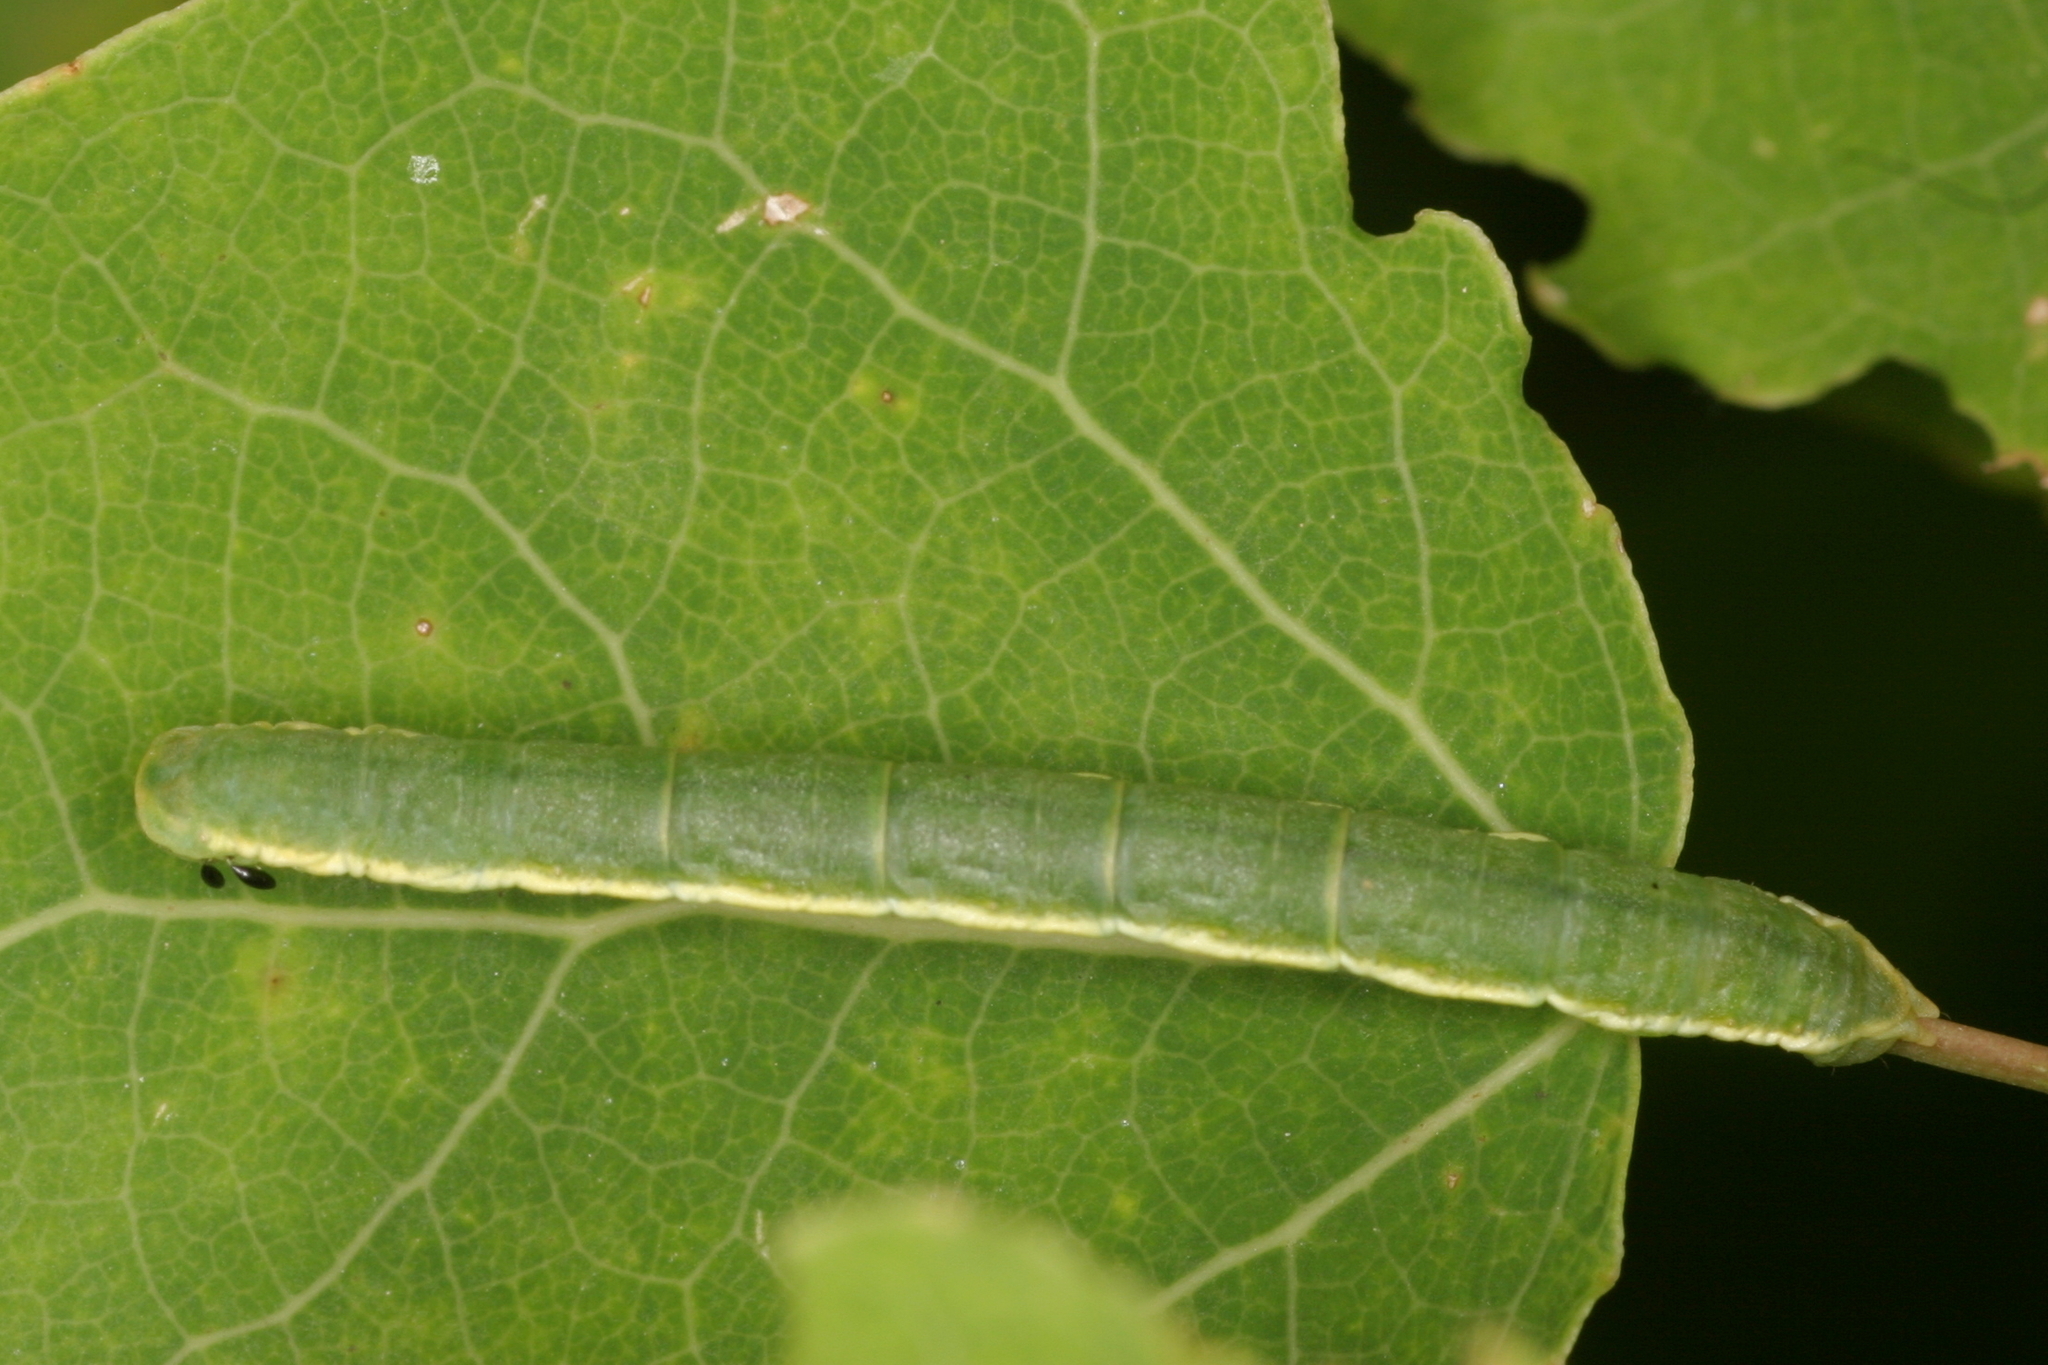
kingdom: Animalia
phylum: Arthropoda
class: Insecta
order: Lepidoptera
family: Geometridae
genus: Trichopteryx
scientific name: Trichopteryx carpinata
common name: Early tooth-striped
